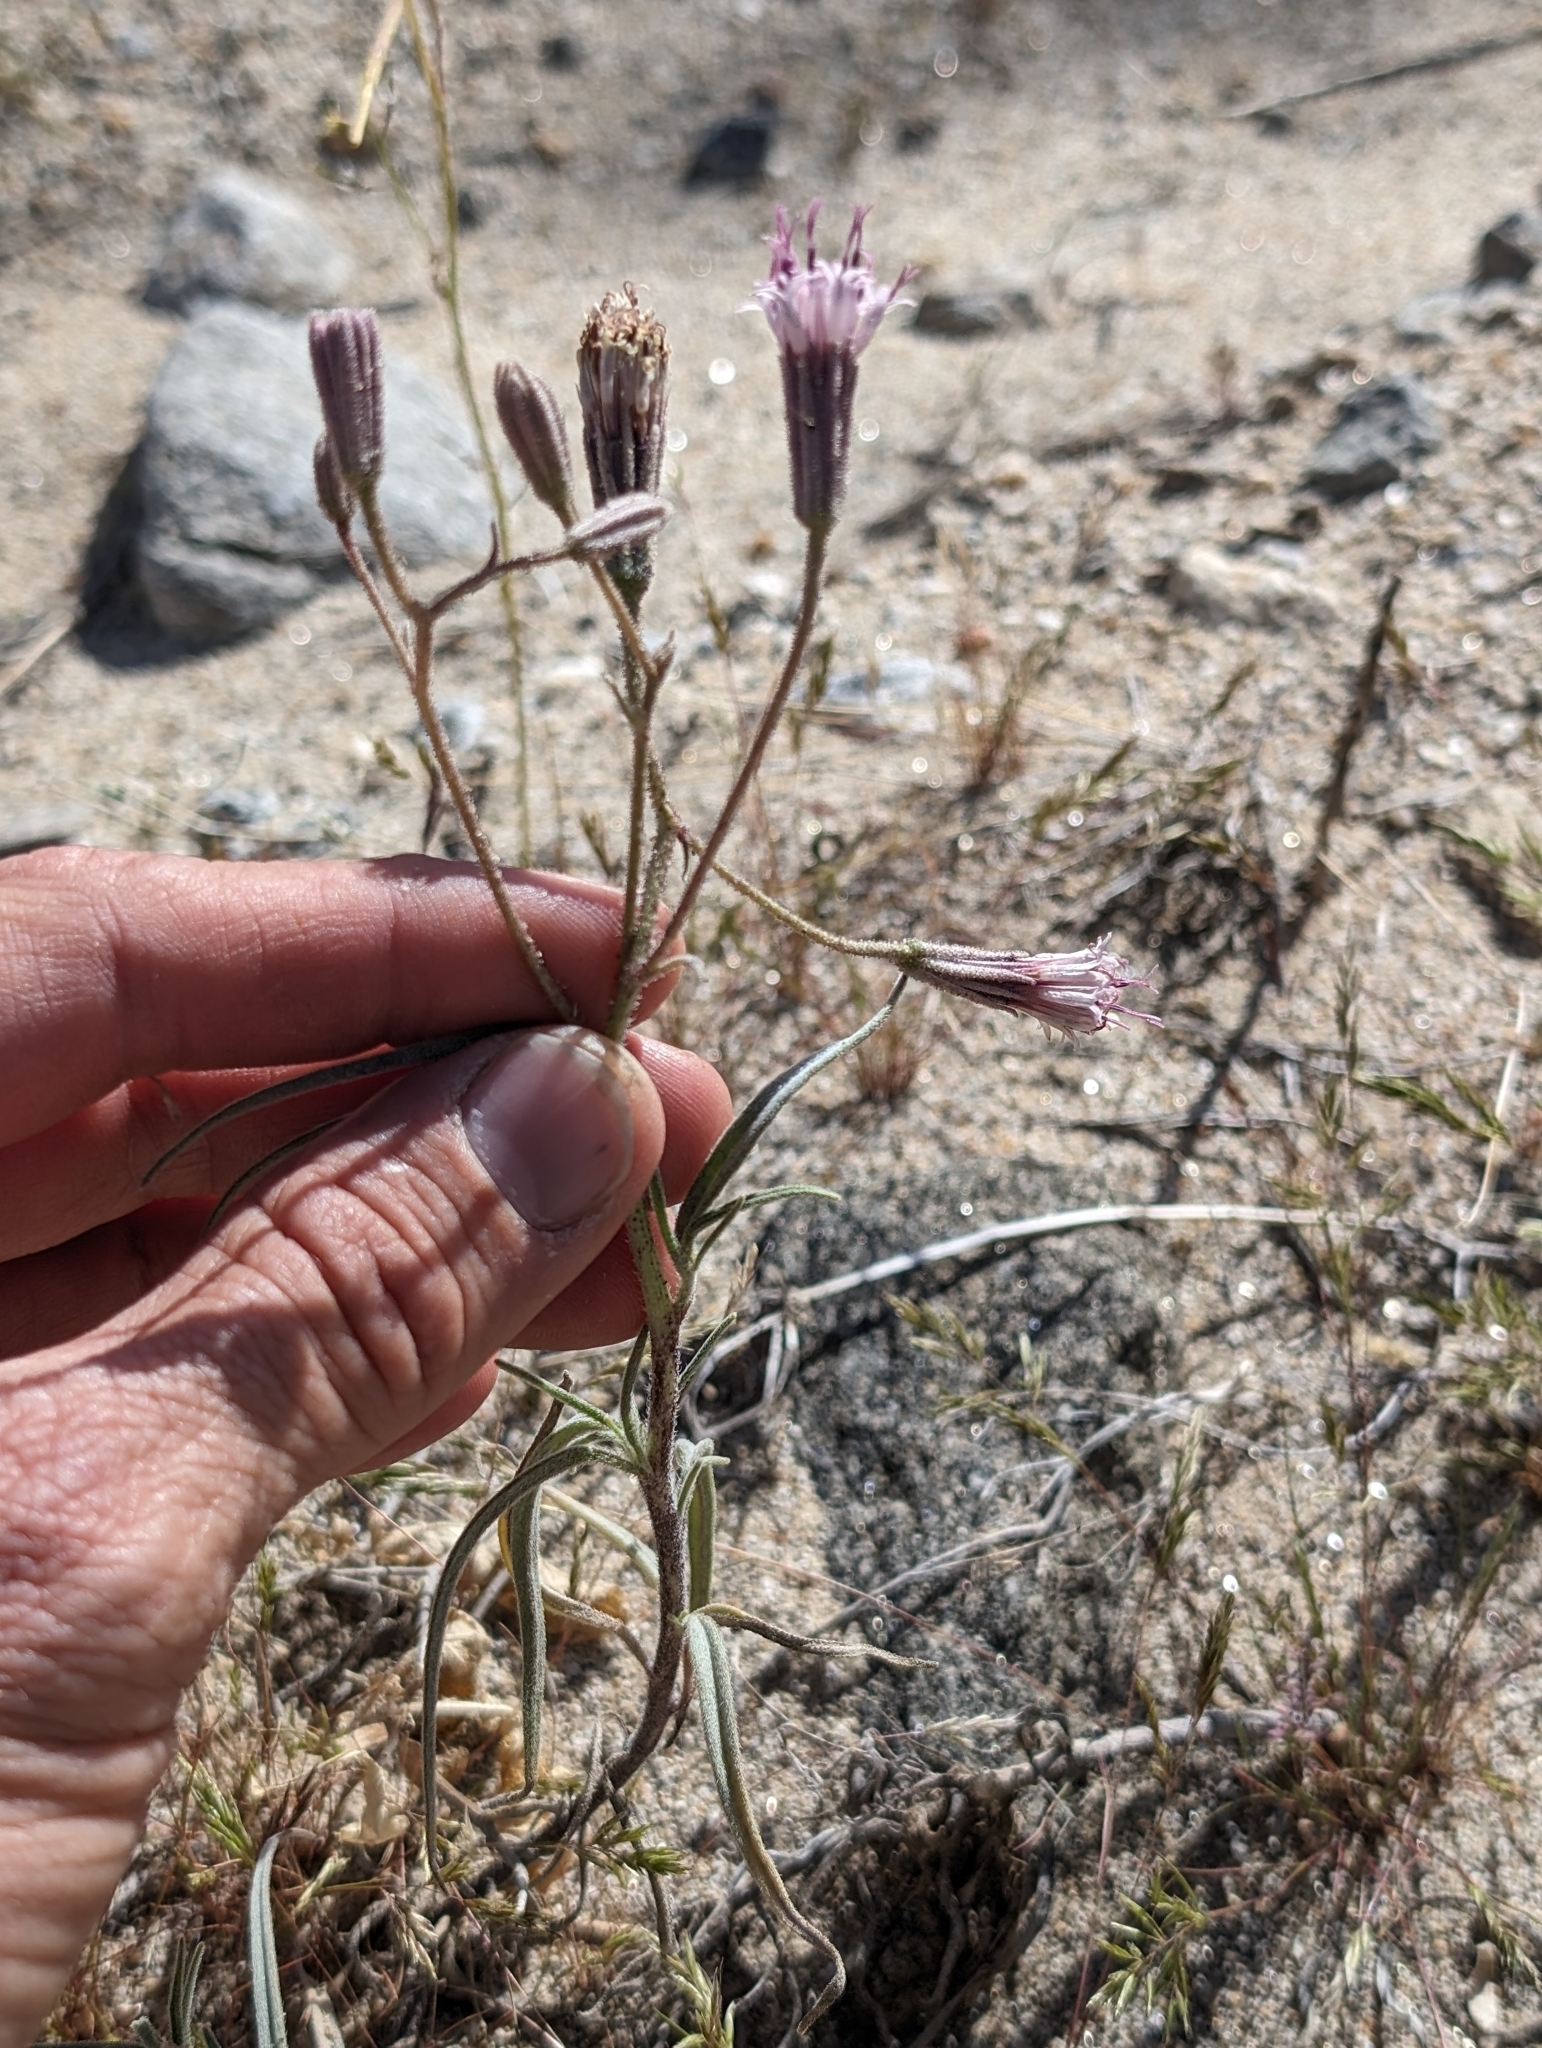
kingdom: Plantae
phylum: Tracheophyta
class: Magnoliopsida
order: Asterales
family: Asteraceae
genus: Palafoxia
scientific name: Palafoxia arida
